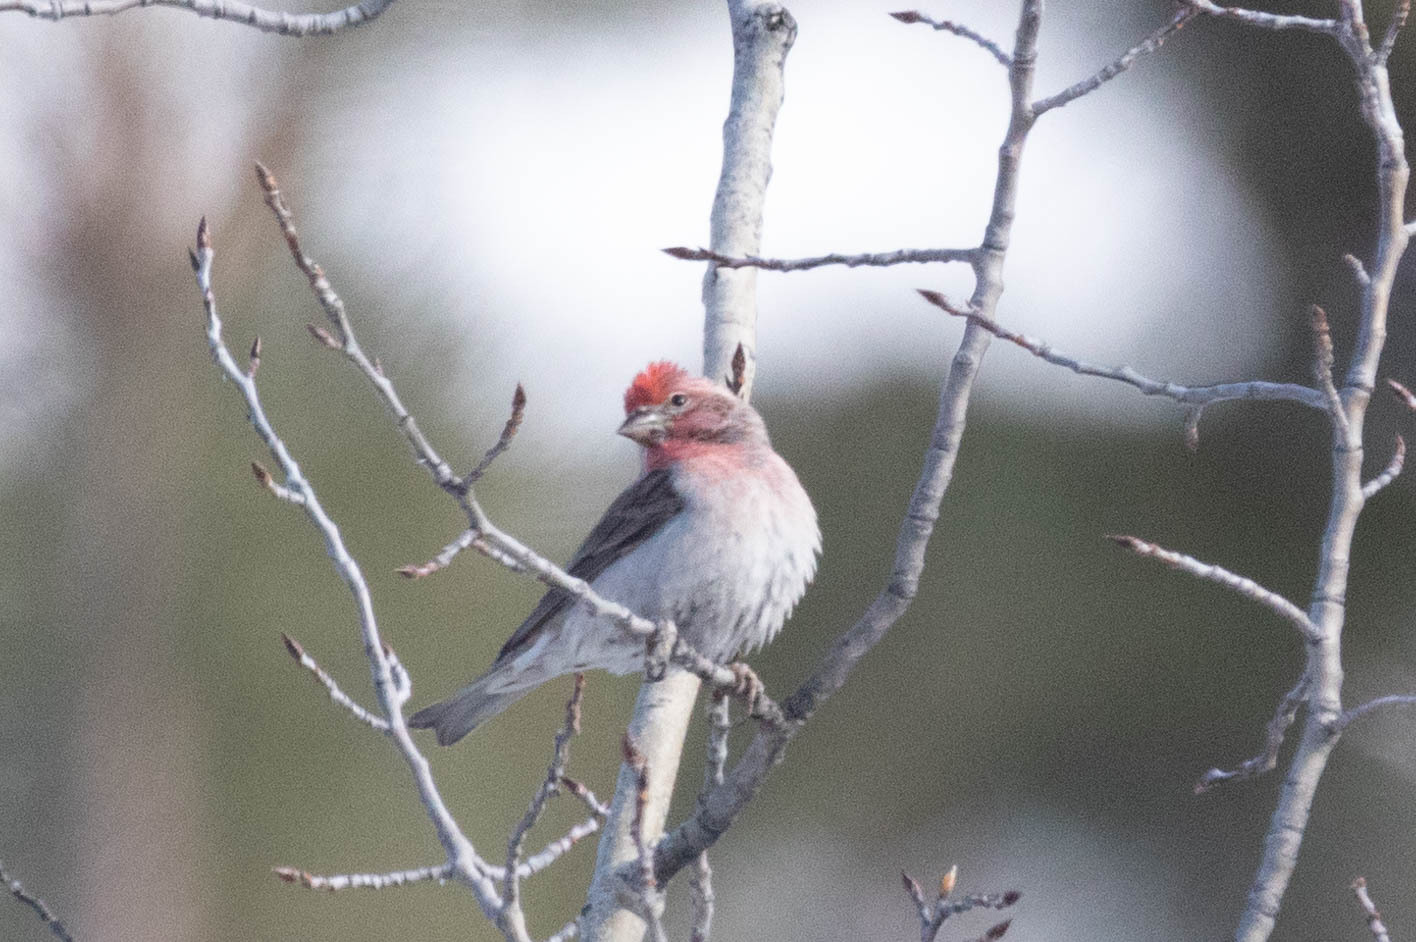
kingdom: Animalia
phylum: Chordata
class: Aves
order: Passeriformes
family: Fringillidae
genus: Haemorhous
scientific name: Haemorhous cassinii
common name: Cassin's finch
